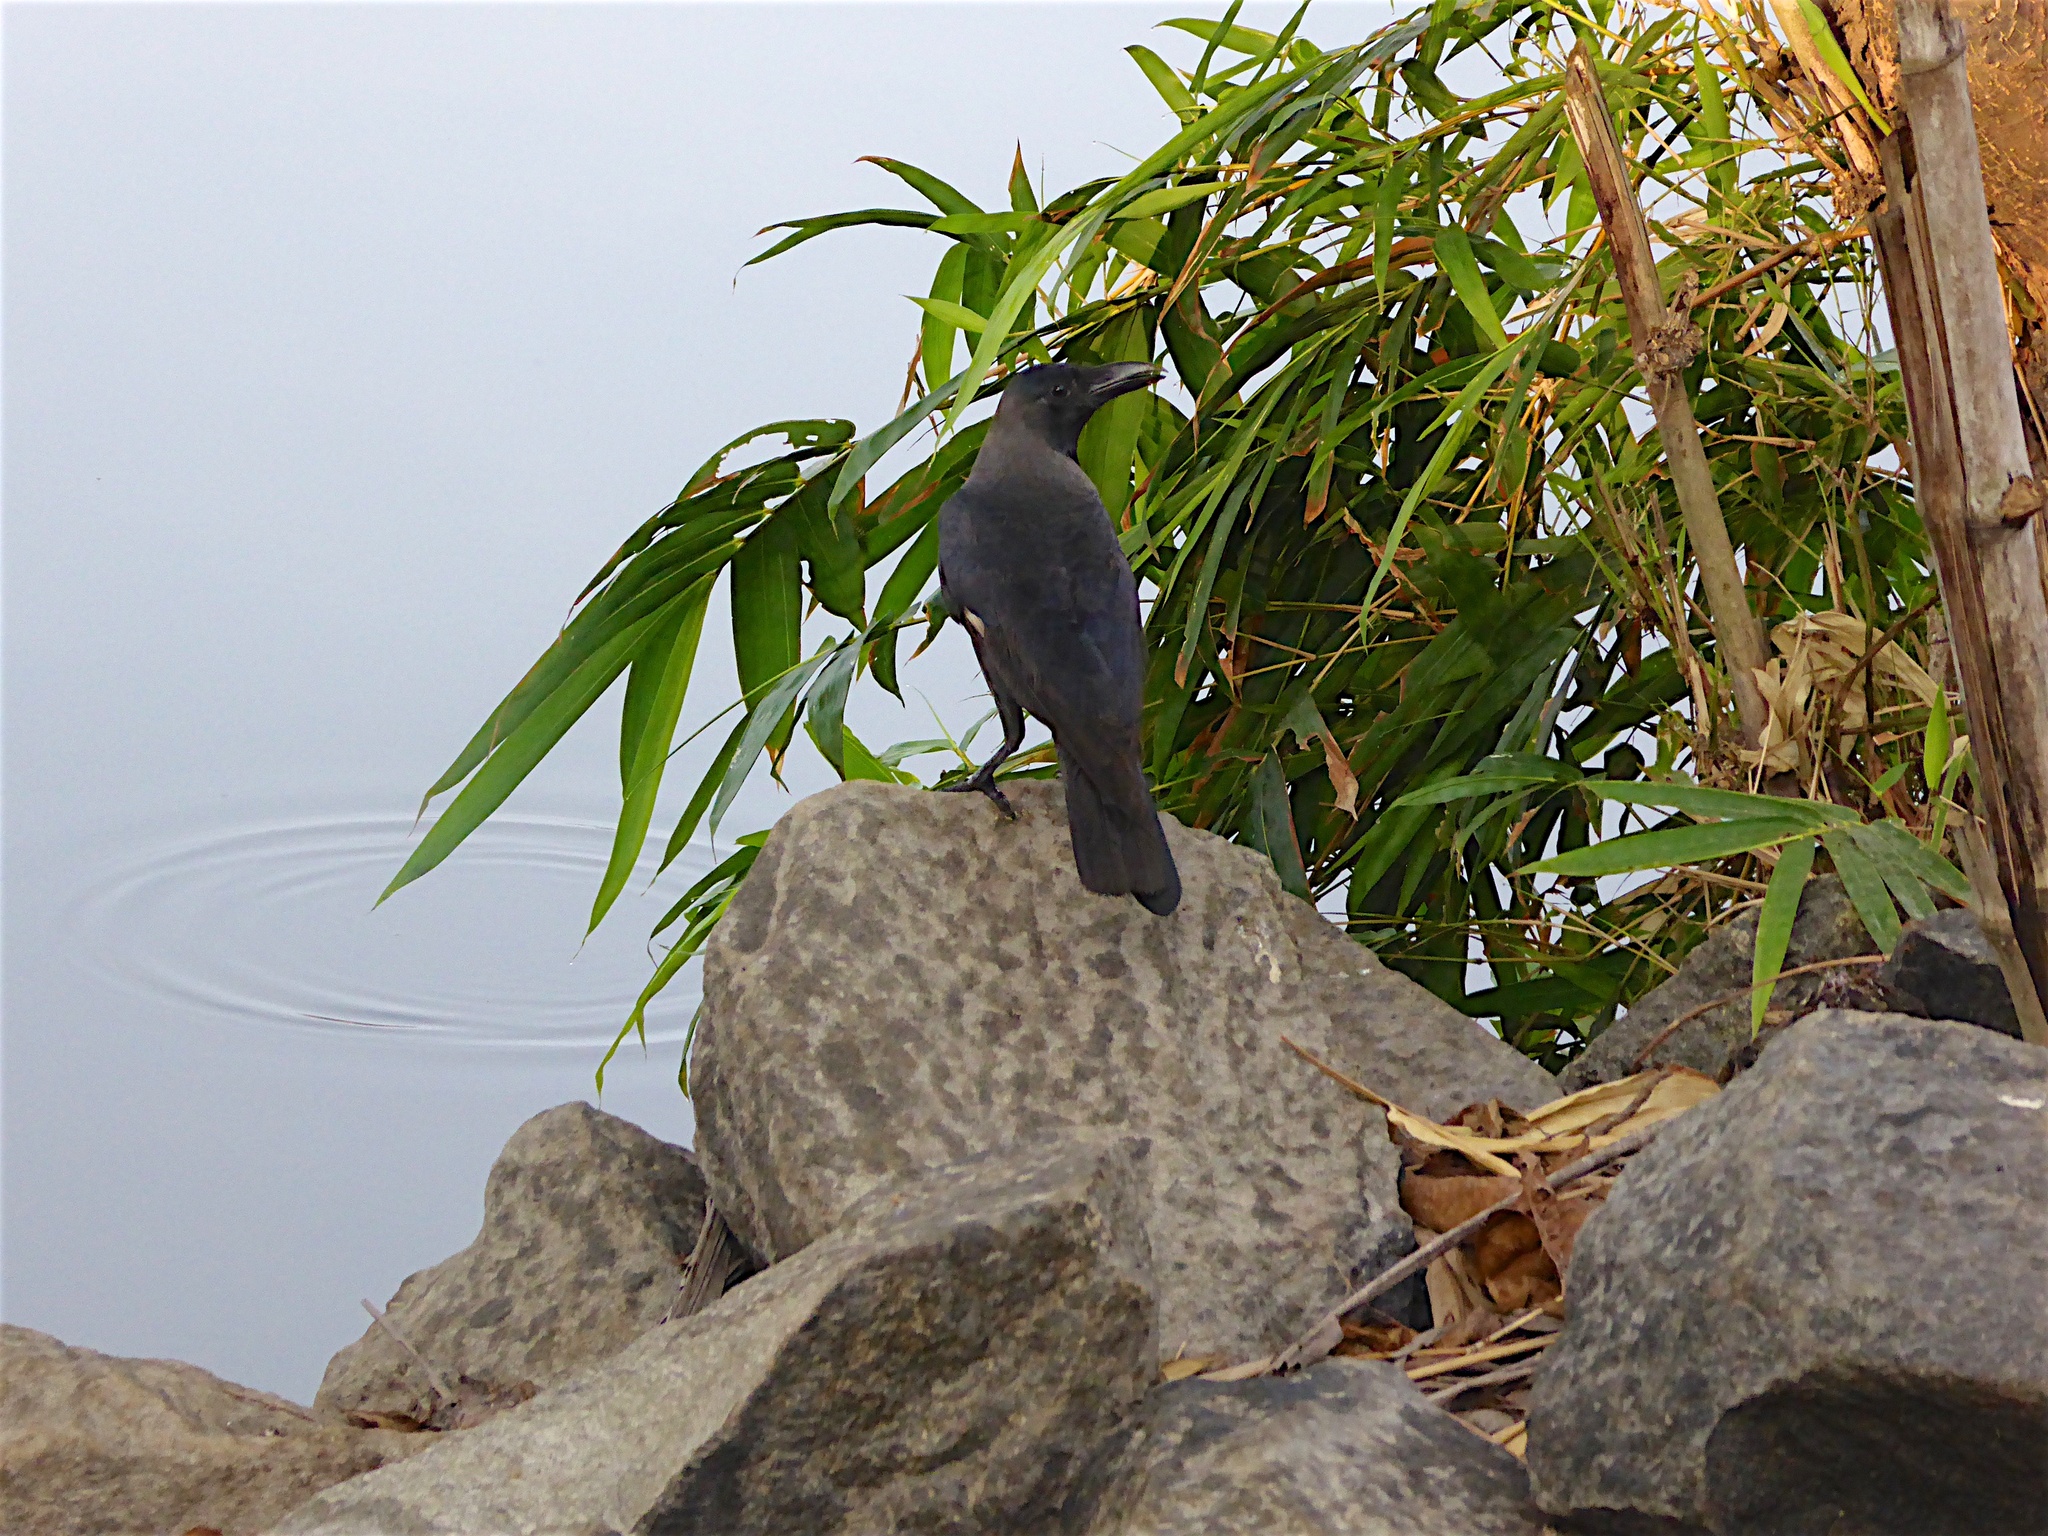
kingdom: Animalia
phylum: Chordata
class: Aves
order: Passeriformes
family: Corvidae
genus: Corvus
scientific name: Corvus splendens
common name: House crow
